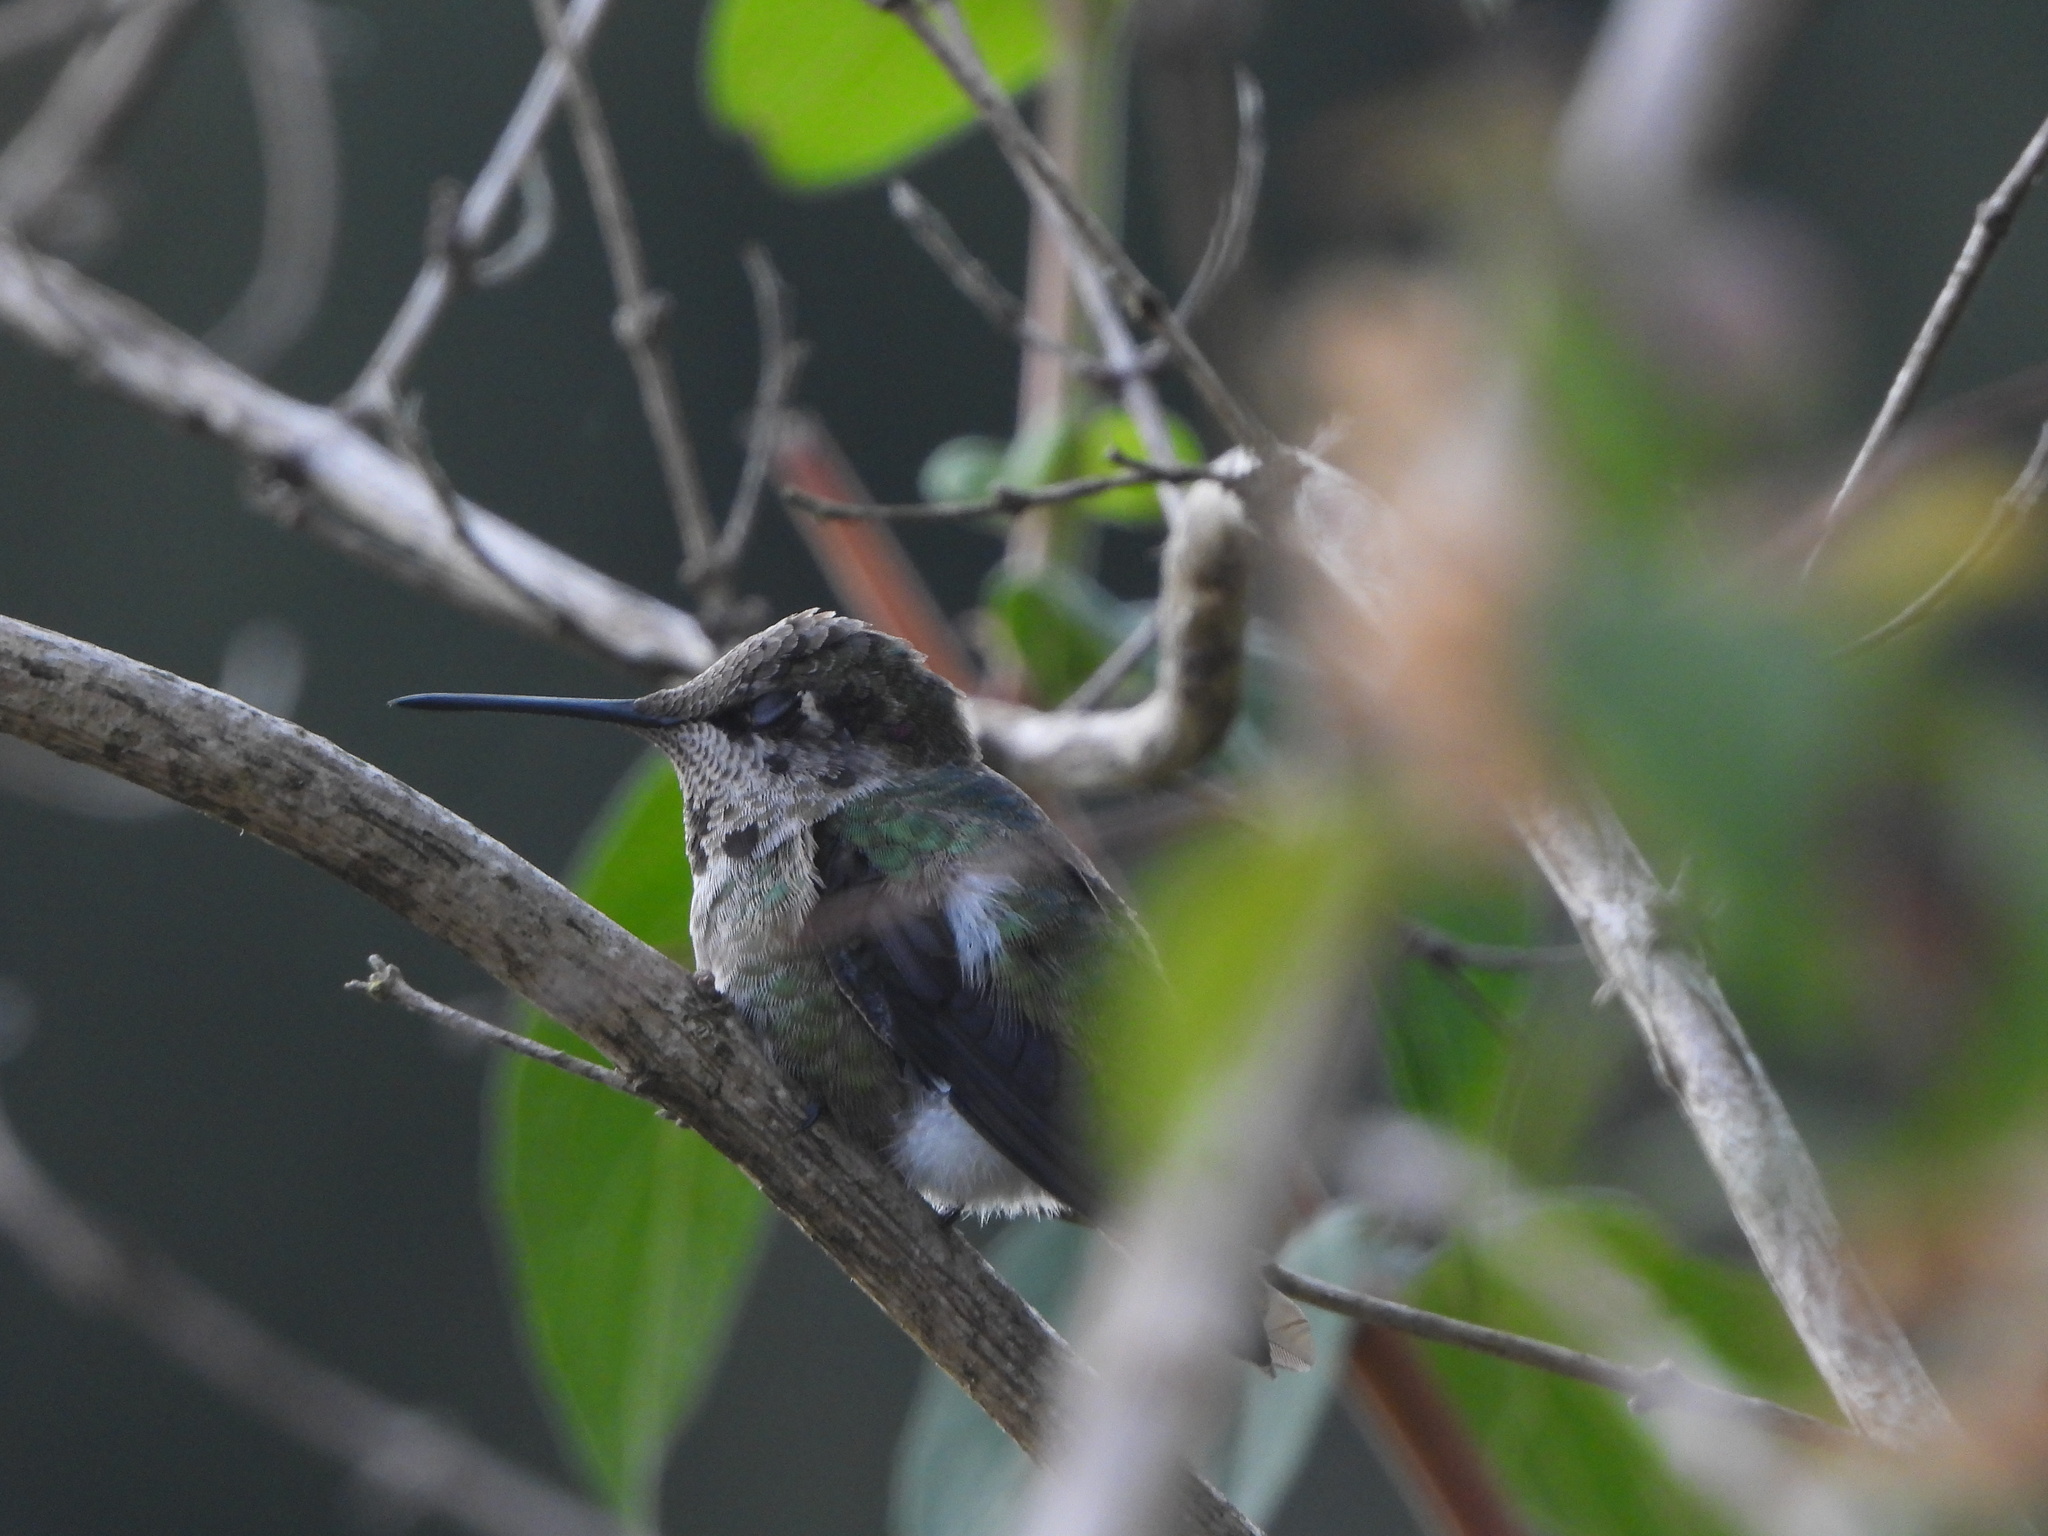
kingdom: Animalia
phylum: Chordata
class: Aves
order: Apodiformes
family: Trochilidae
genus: Calypte
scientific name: Calypte anna
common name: Anna's hummingbird
